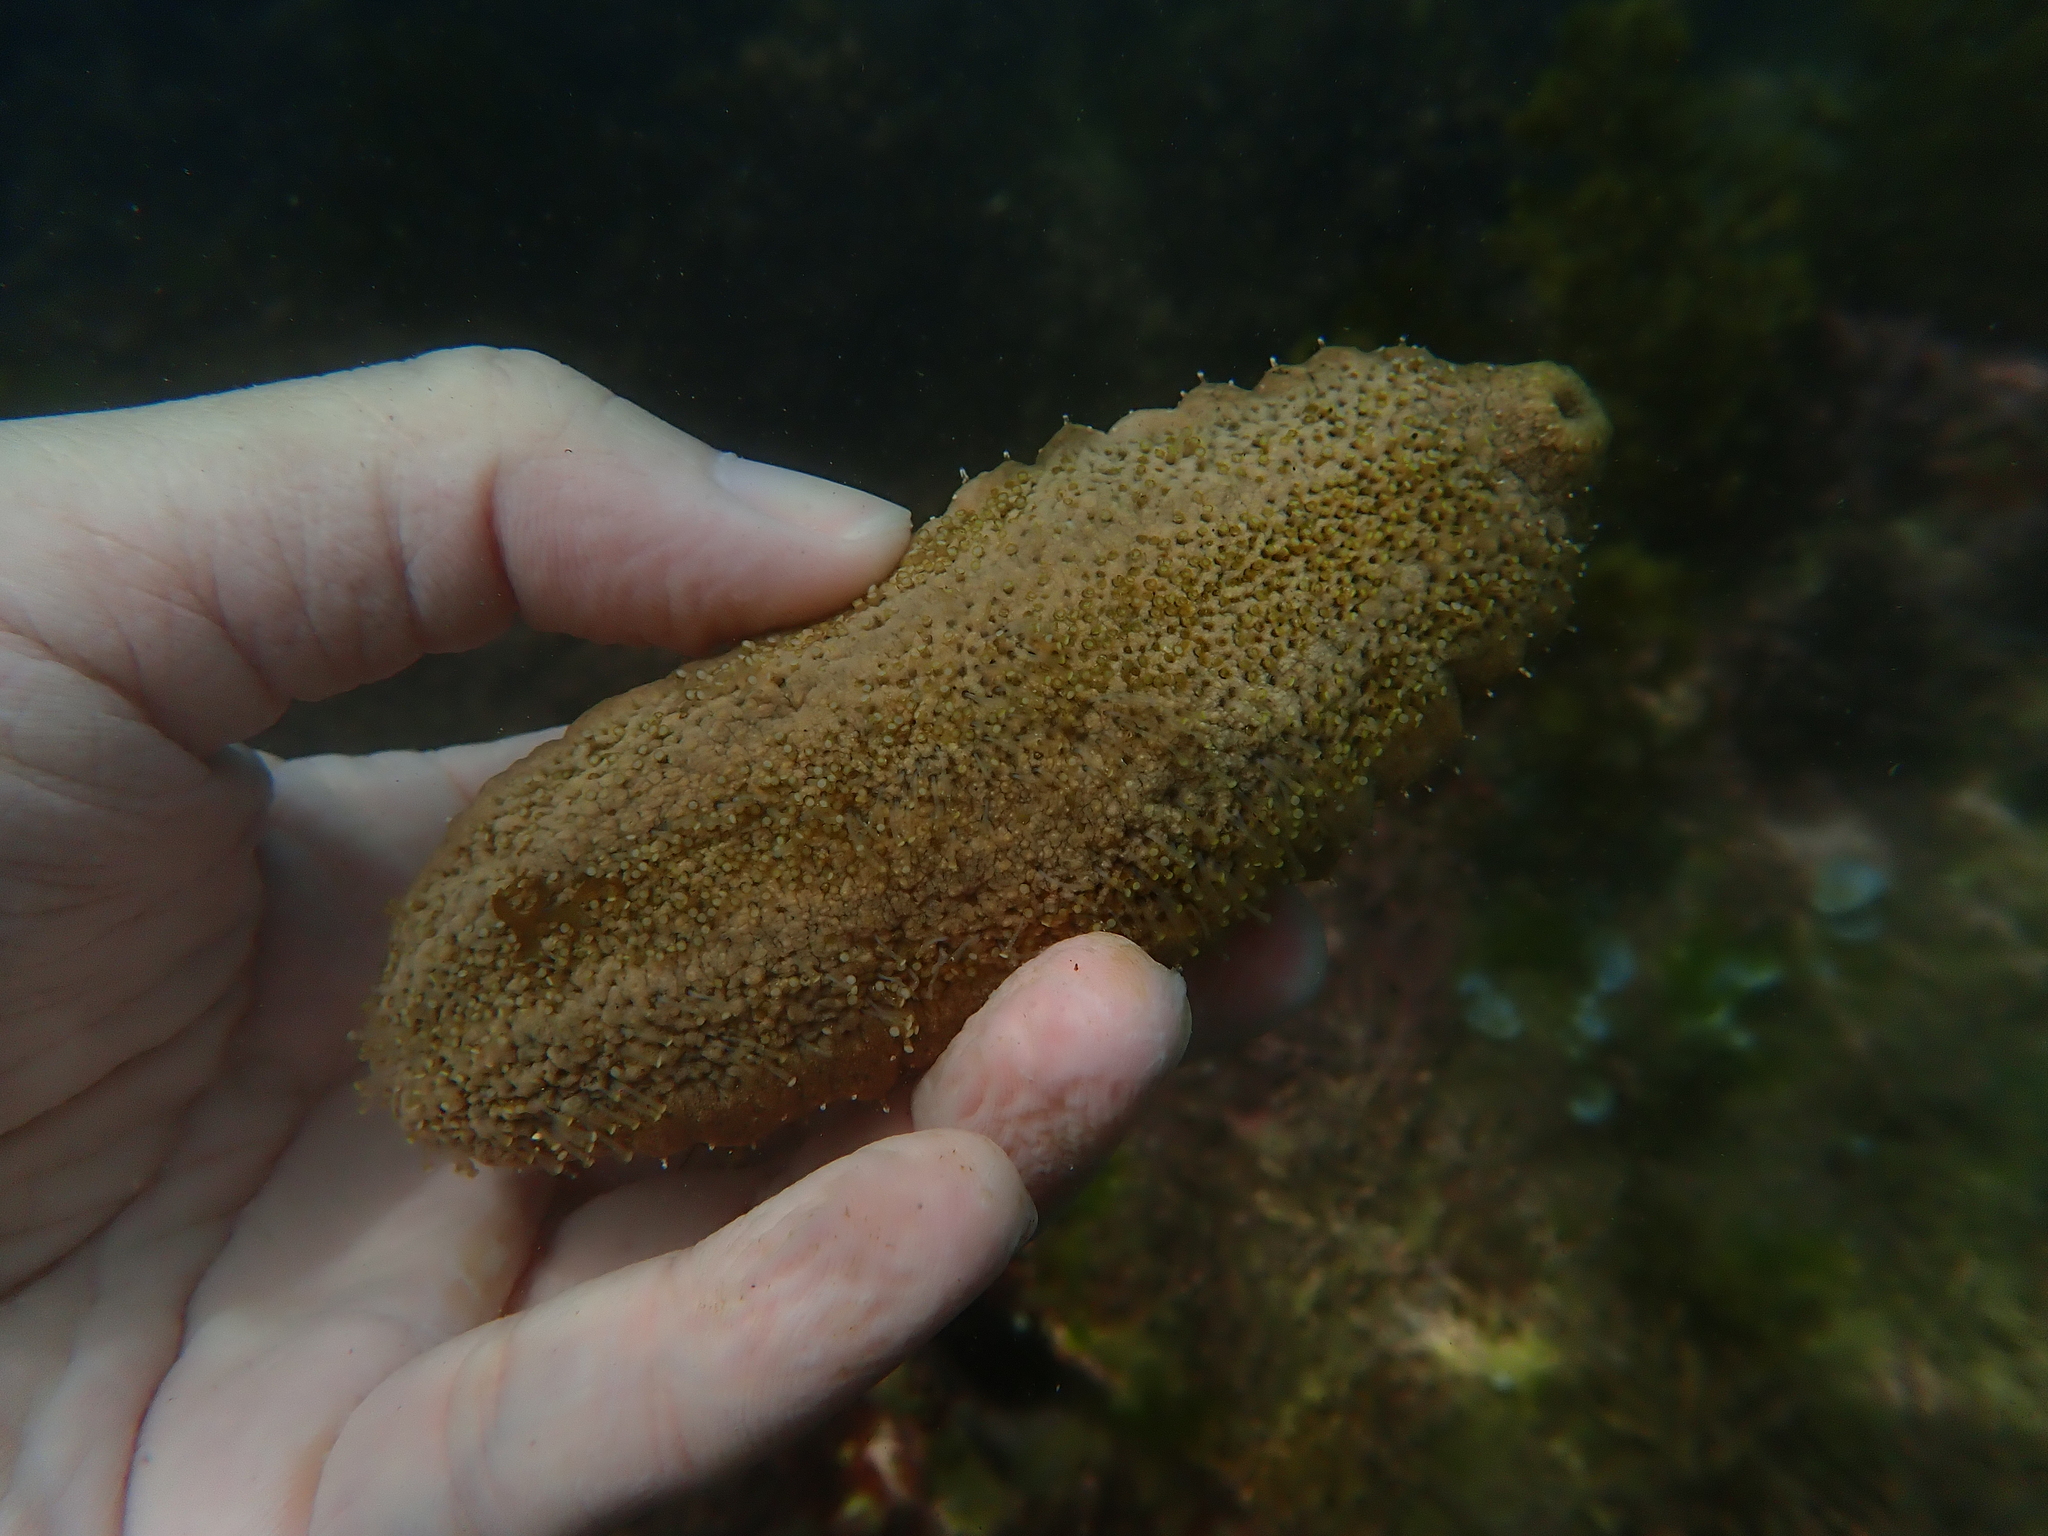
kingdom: Animalia
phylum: Echinodermata
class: Holothuroidea
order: Holothuriida
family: Holothuriidae
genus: Actinopyga
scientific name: Actinopyga echinites
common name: Brownfish
